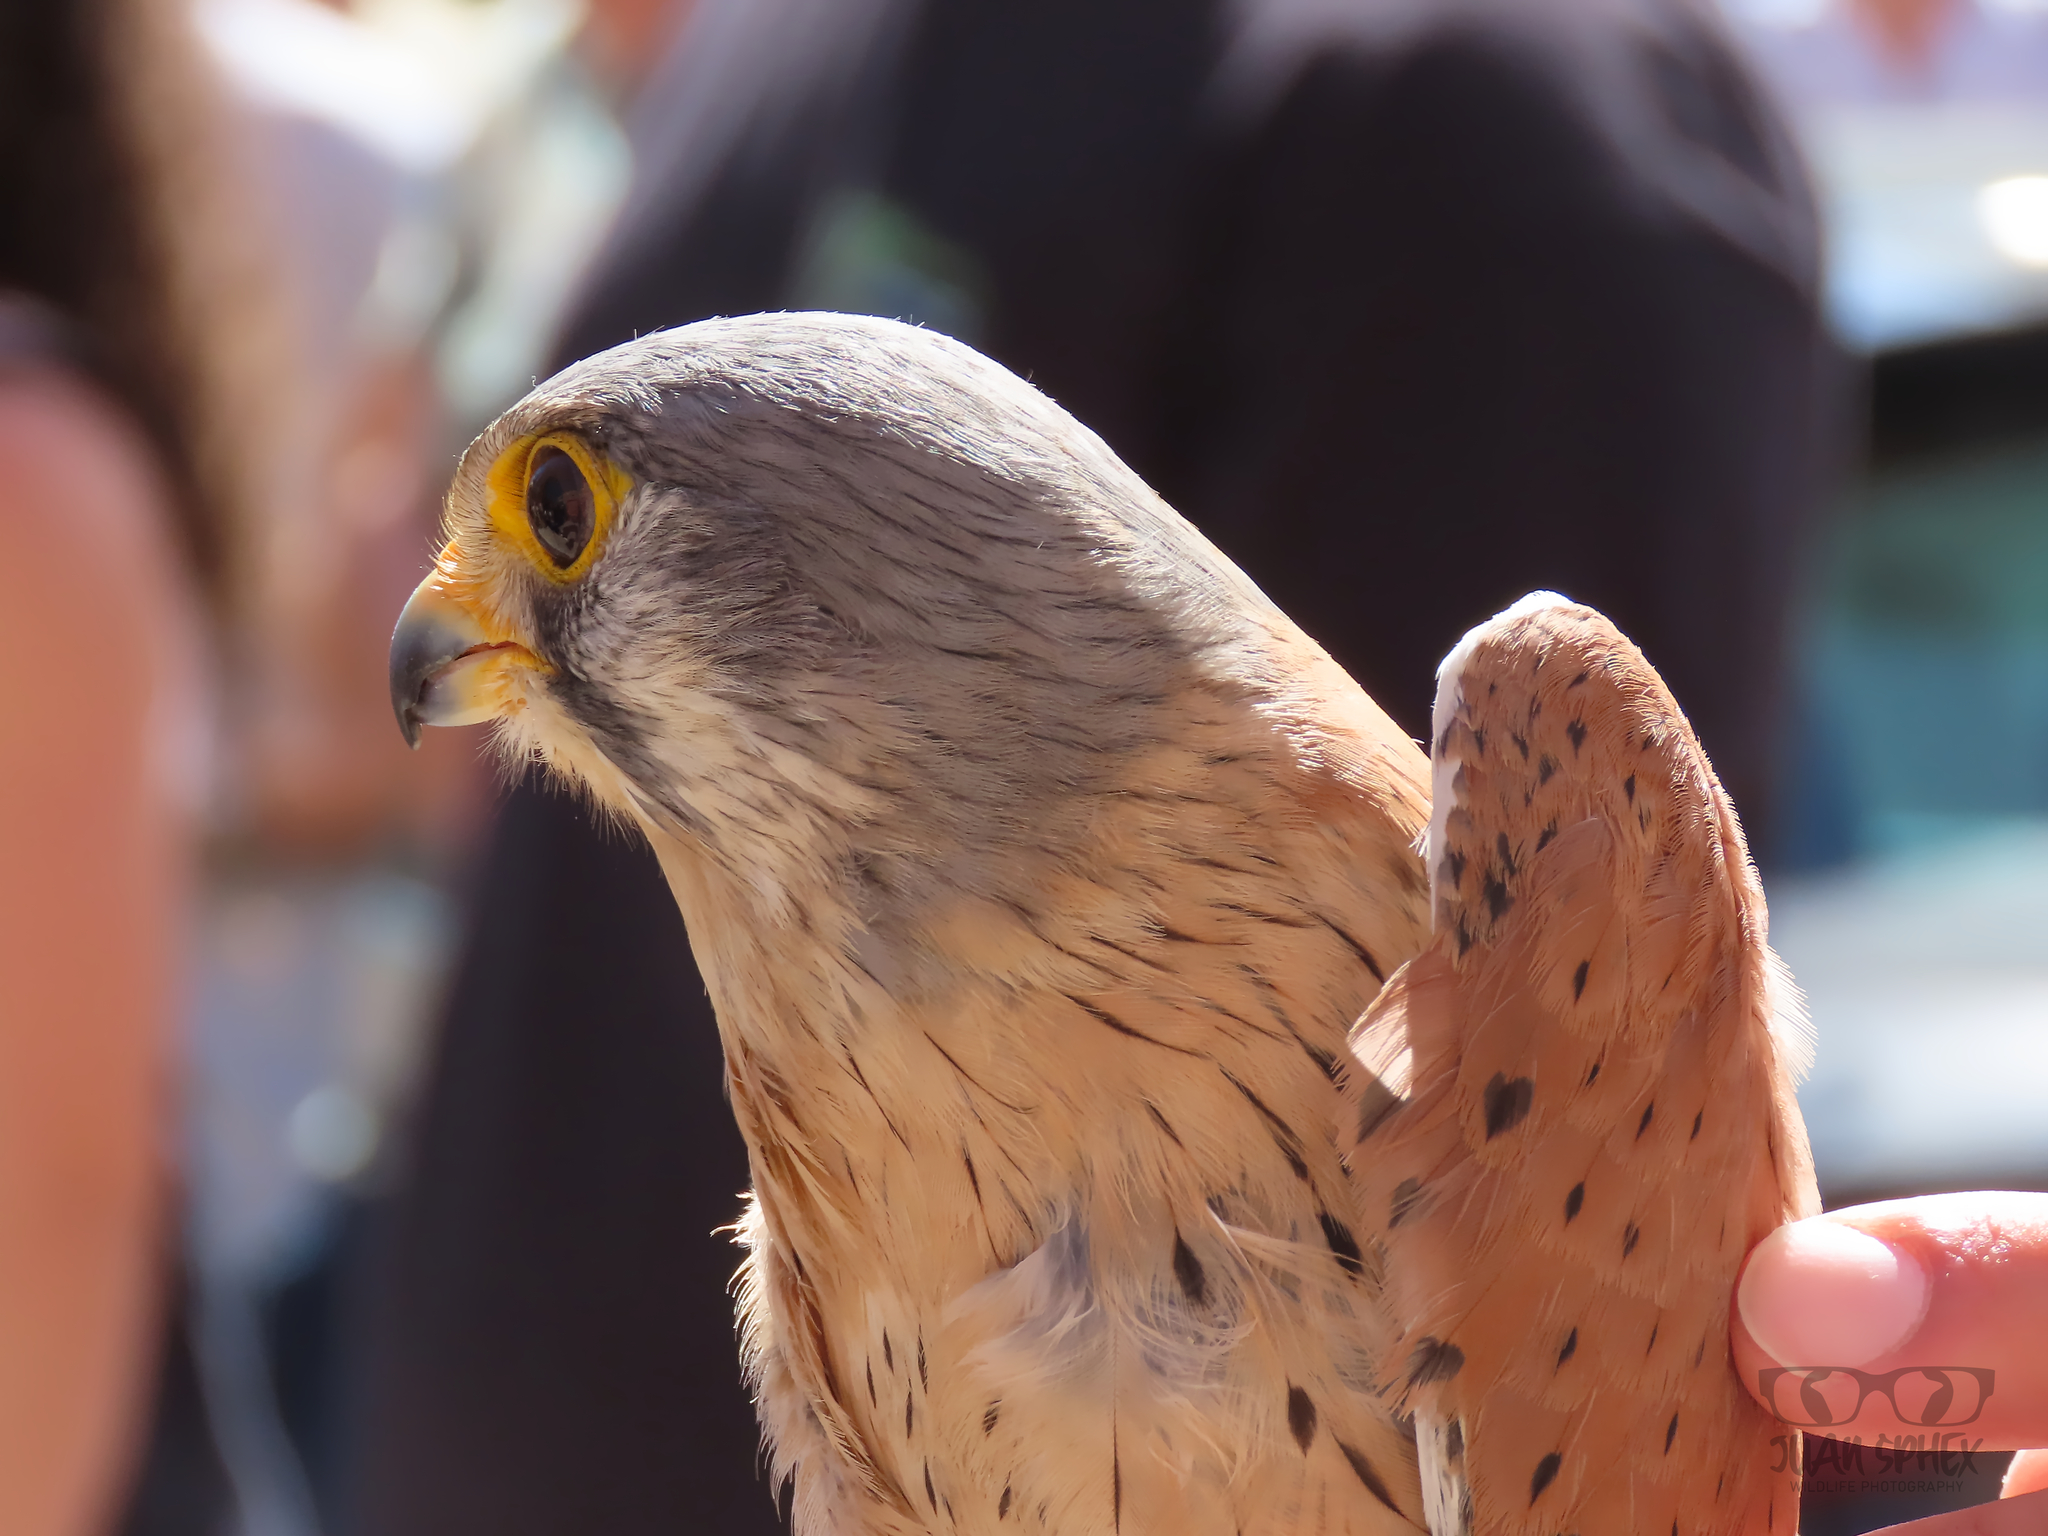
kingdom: Animalia
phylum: Chordata
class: Aves
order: Falconiformes
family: Falconidae
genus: Falco
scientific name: Falco tinnunculus
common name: Common kestrel
